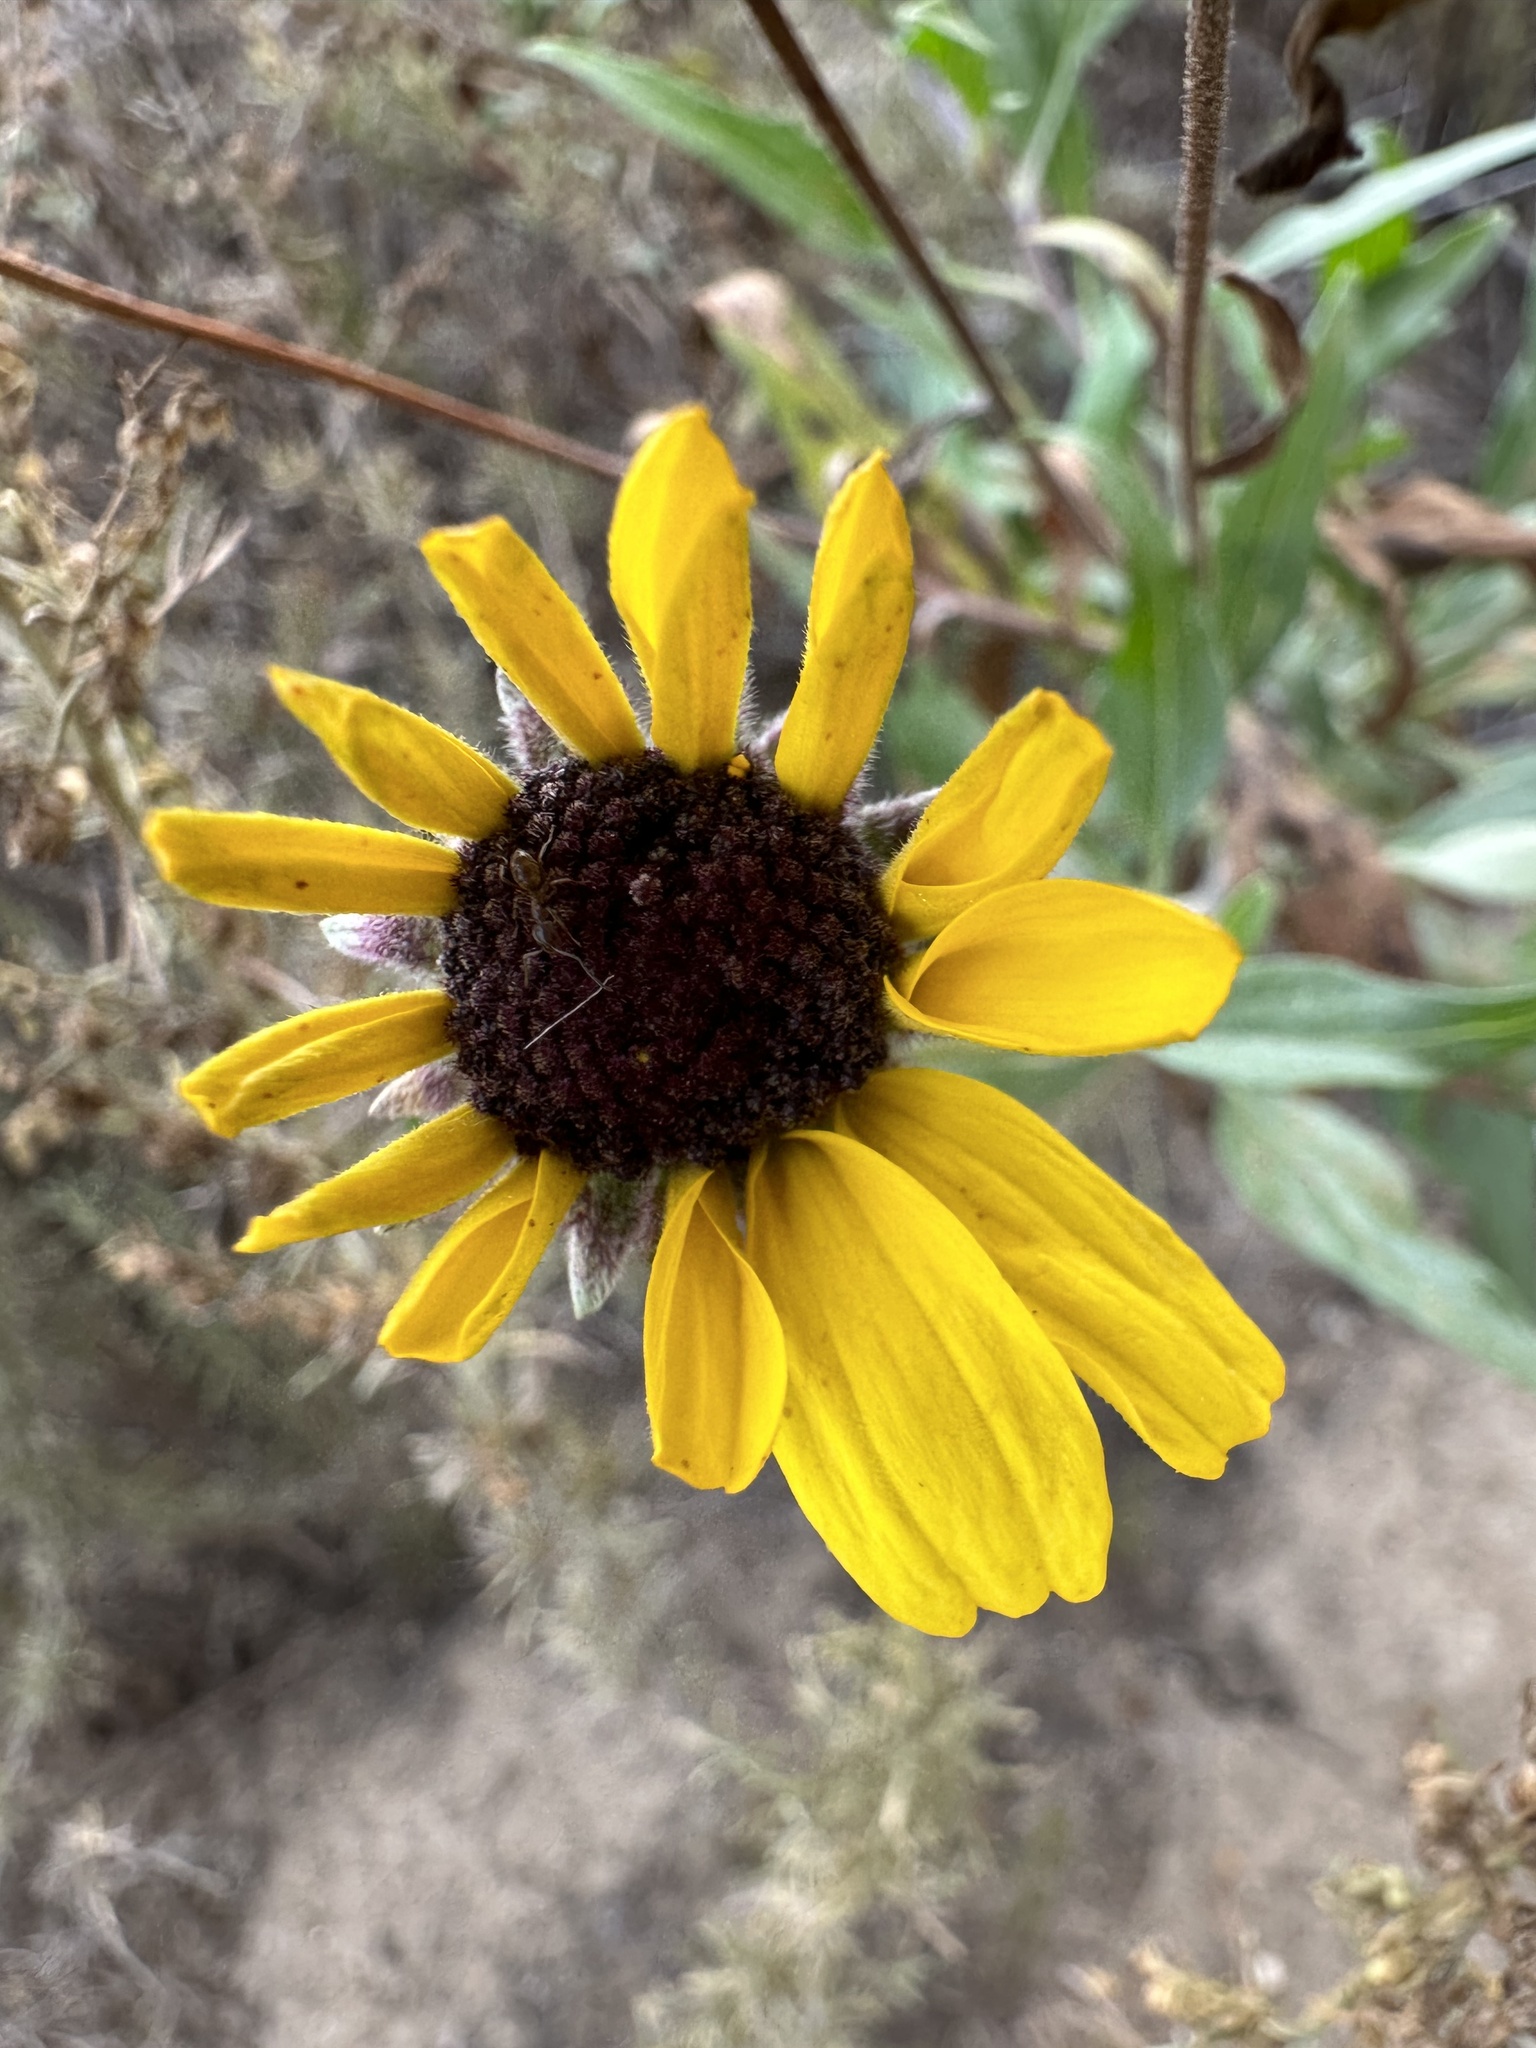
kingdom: Plantae
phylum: Tracheophyta
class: Magnoliopsida
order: Asterales
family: Asteraceae
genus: Encelia
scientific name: Encelia californica
